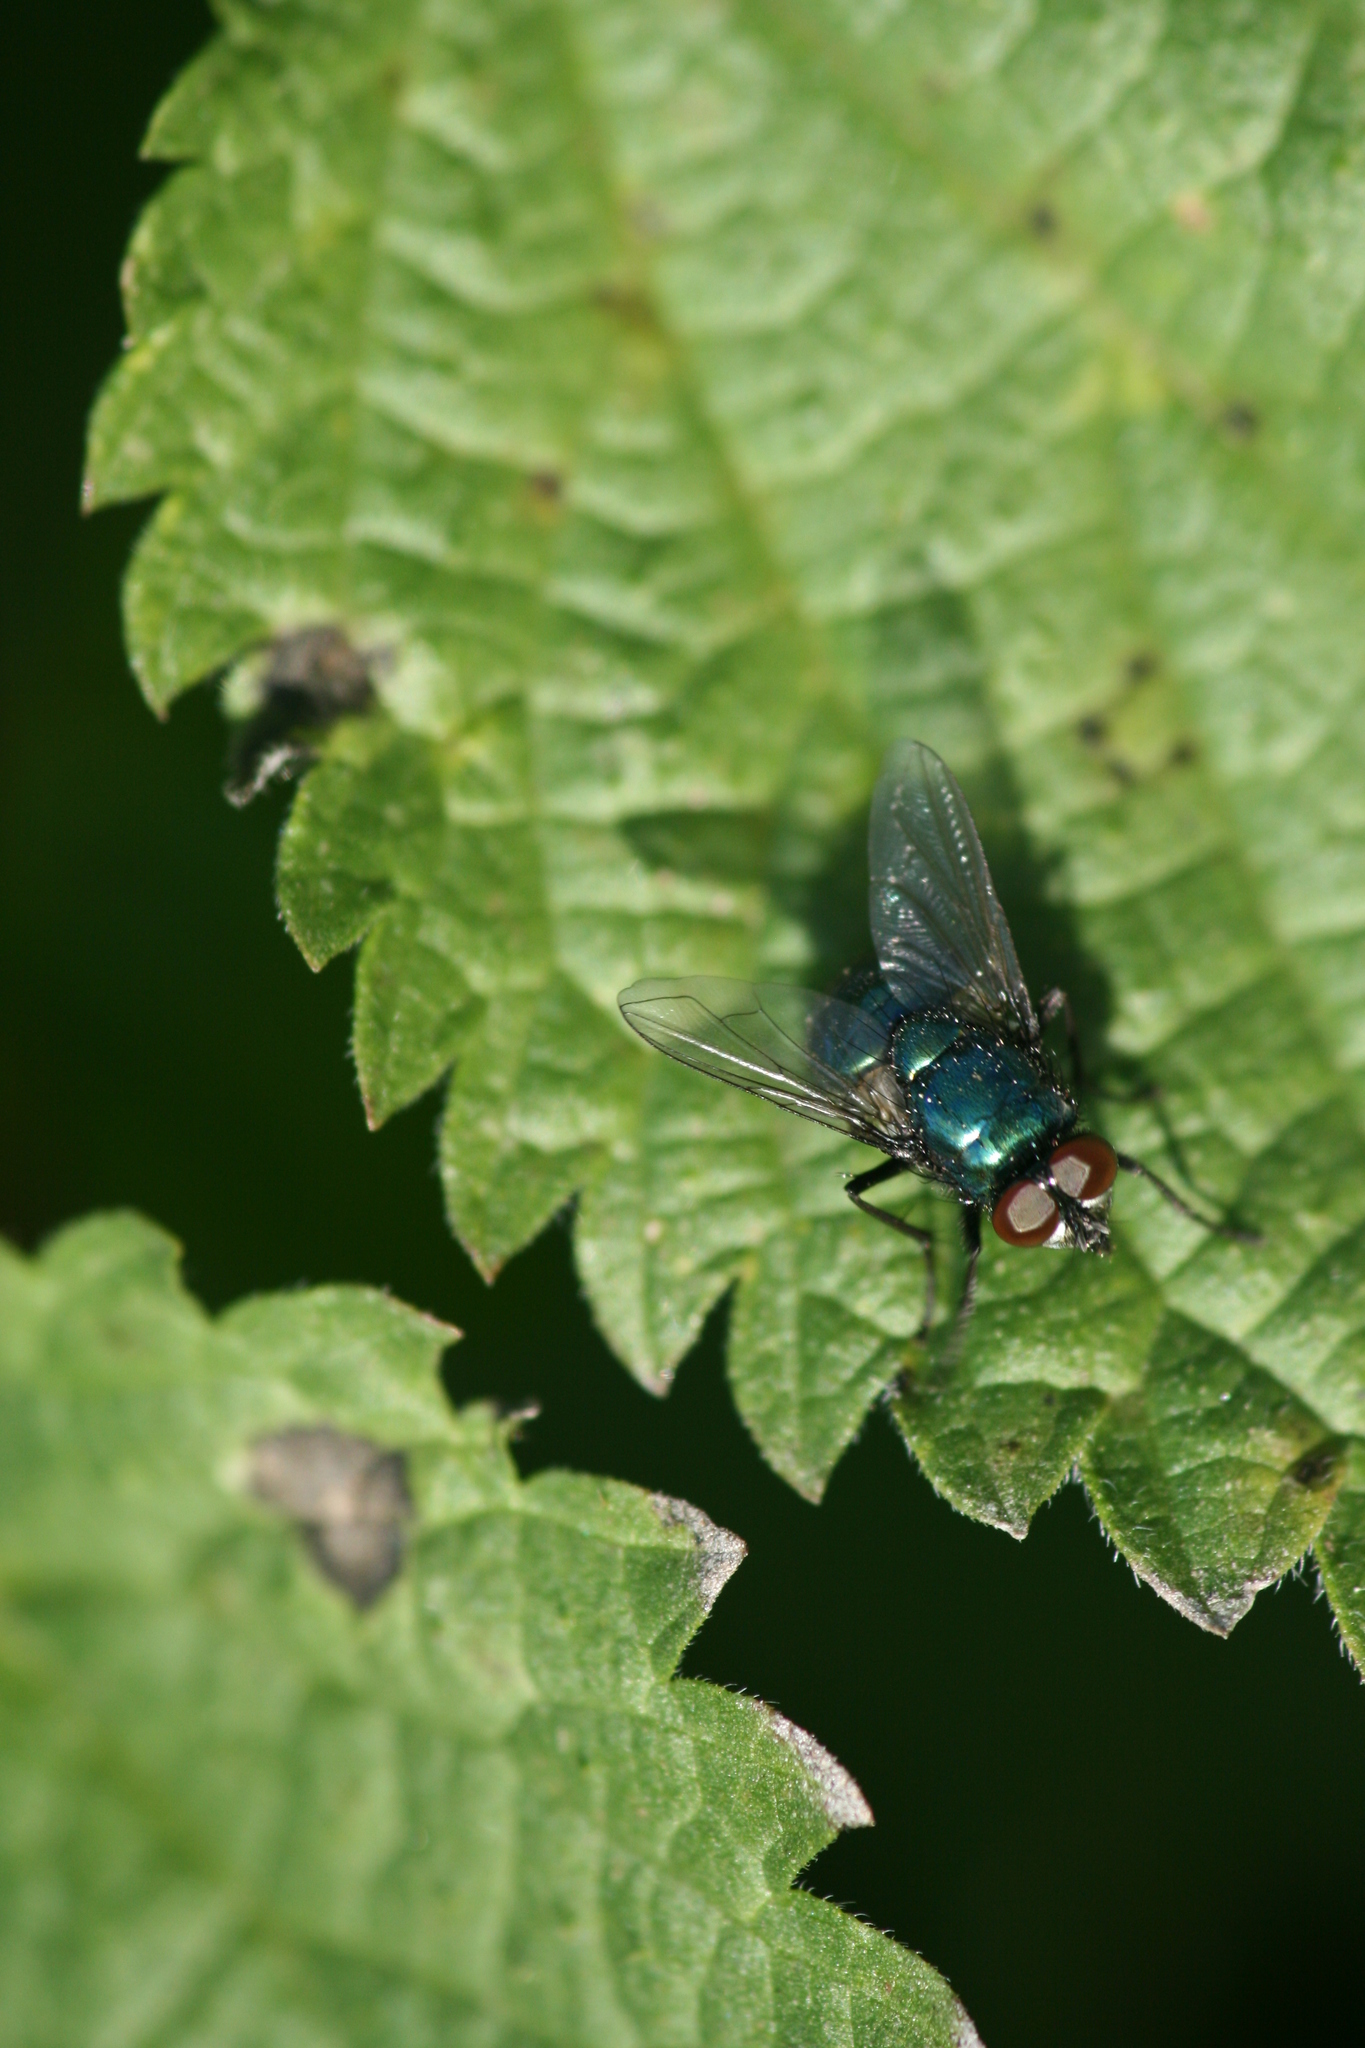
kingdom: Animalia
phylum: Arthropoda
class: Insecta
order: Diptera
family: Muscidae
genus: Neomyia
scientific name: Neomyia viridescens
